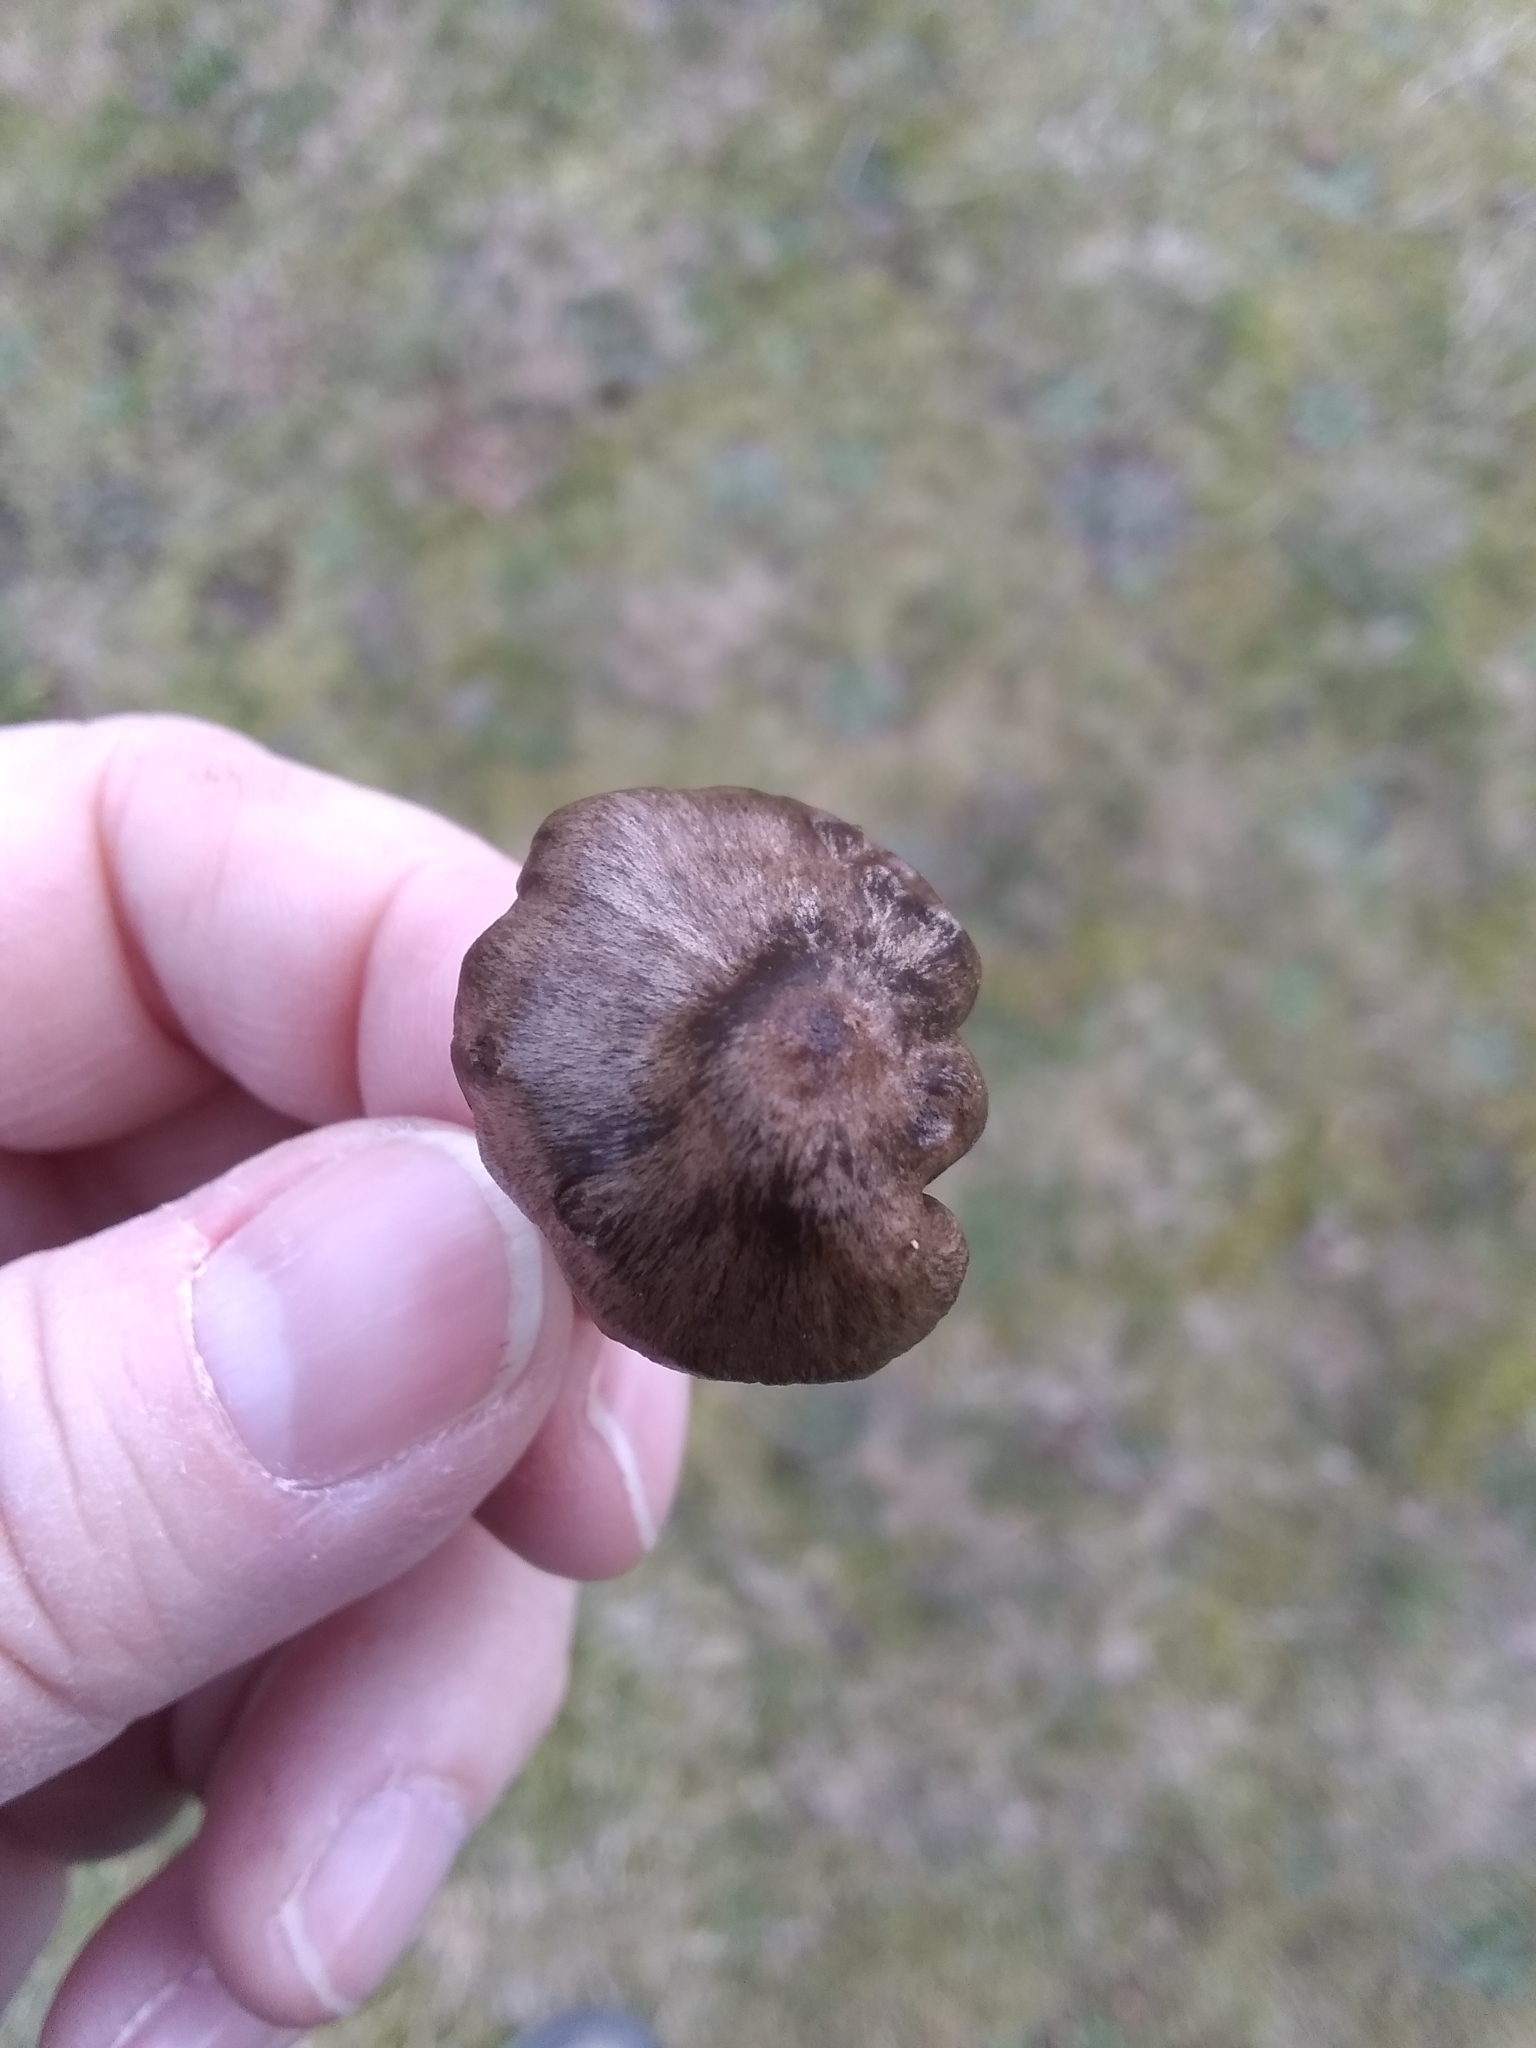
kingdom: Fungi
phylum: Basidiomycota
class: Agaricomycetes
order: Agaricales
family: Entolomataceae
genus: Entoloma
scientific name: Entoloma sericeum
